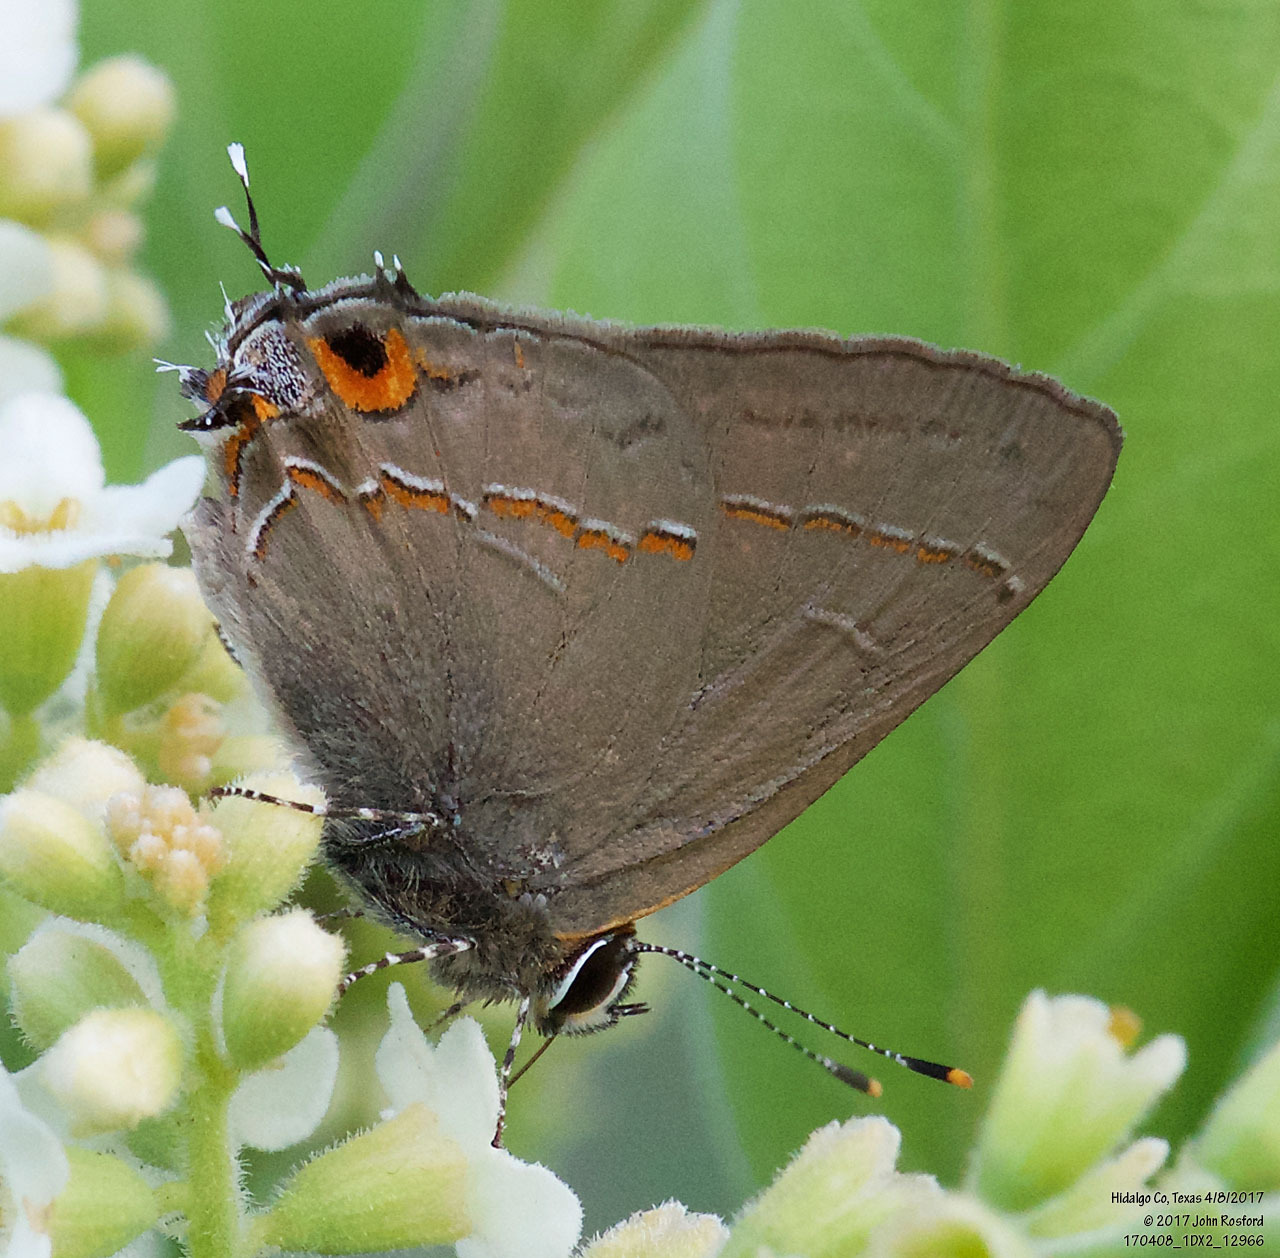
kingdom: Animalia
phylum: Arthropoda
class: Insecta
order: Lepidoptera
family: Lycaenidae
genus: Electrostrymon
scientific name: Electrostrymon endymion
